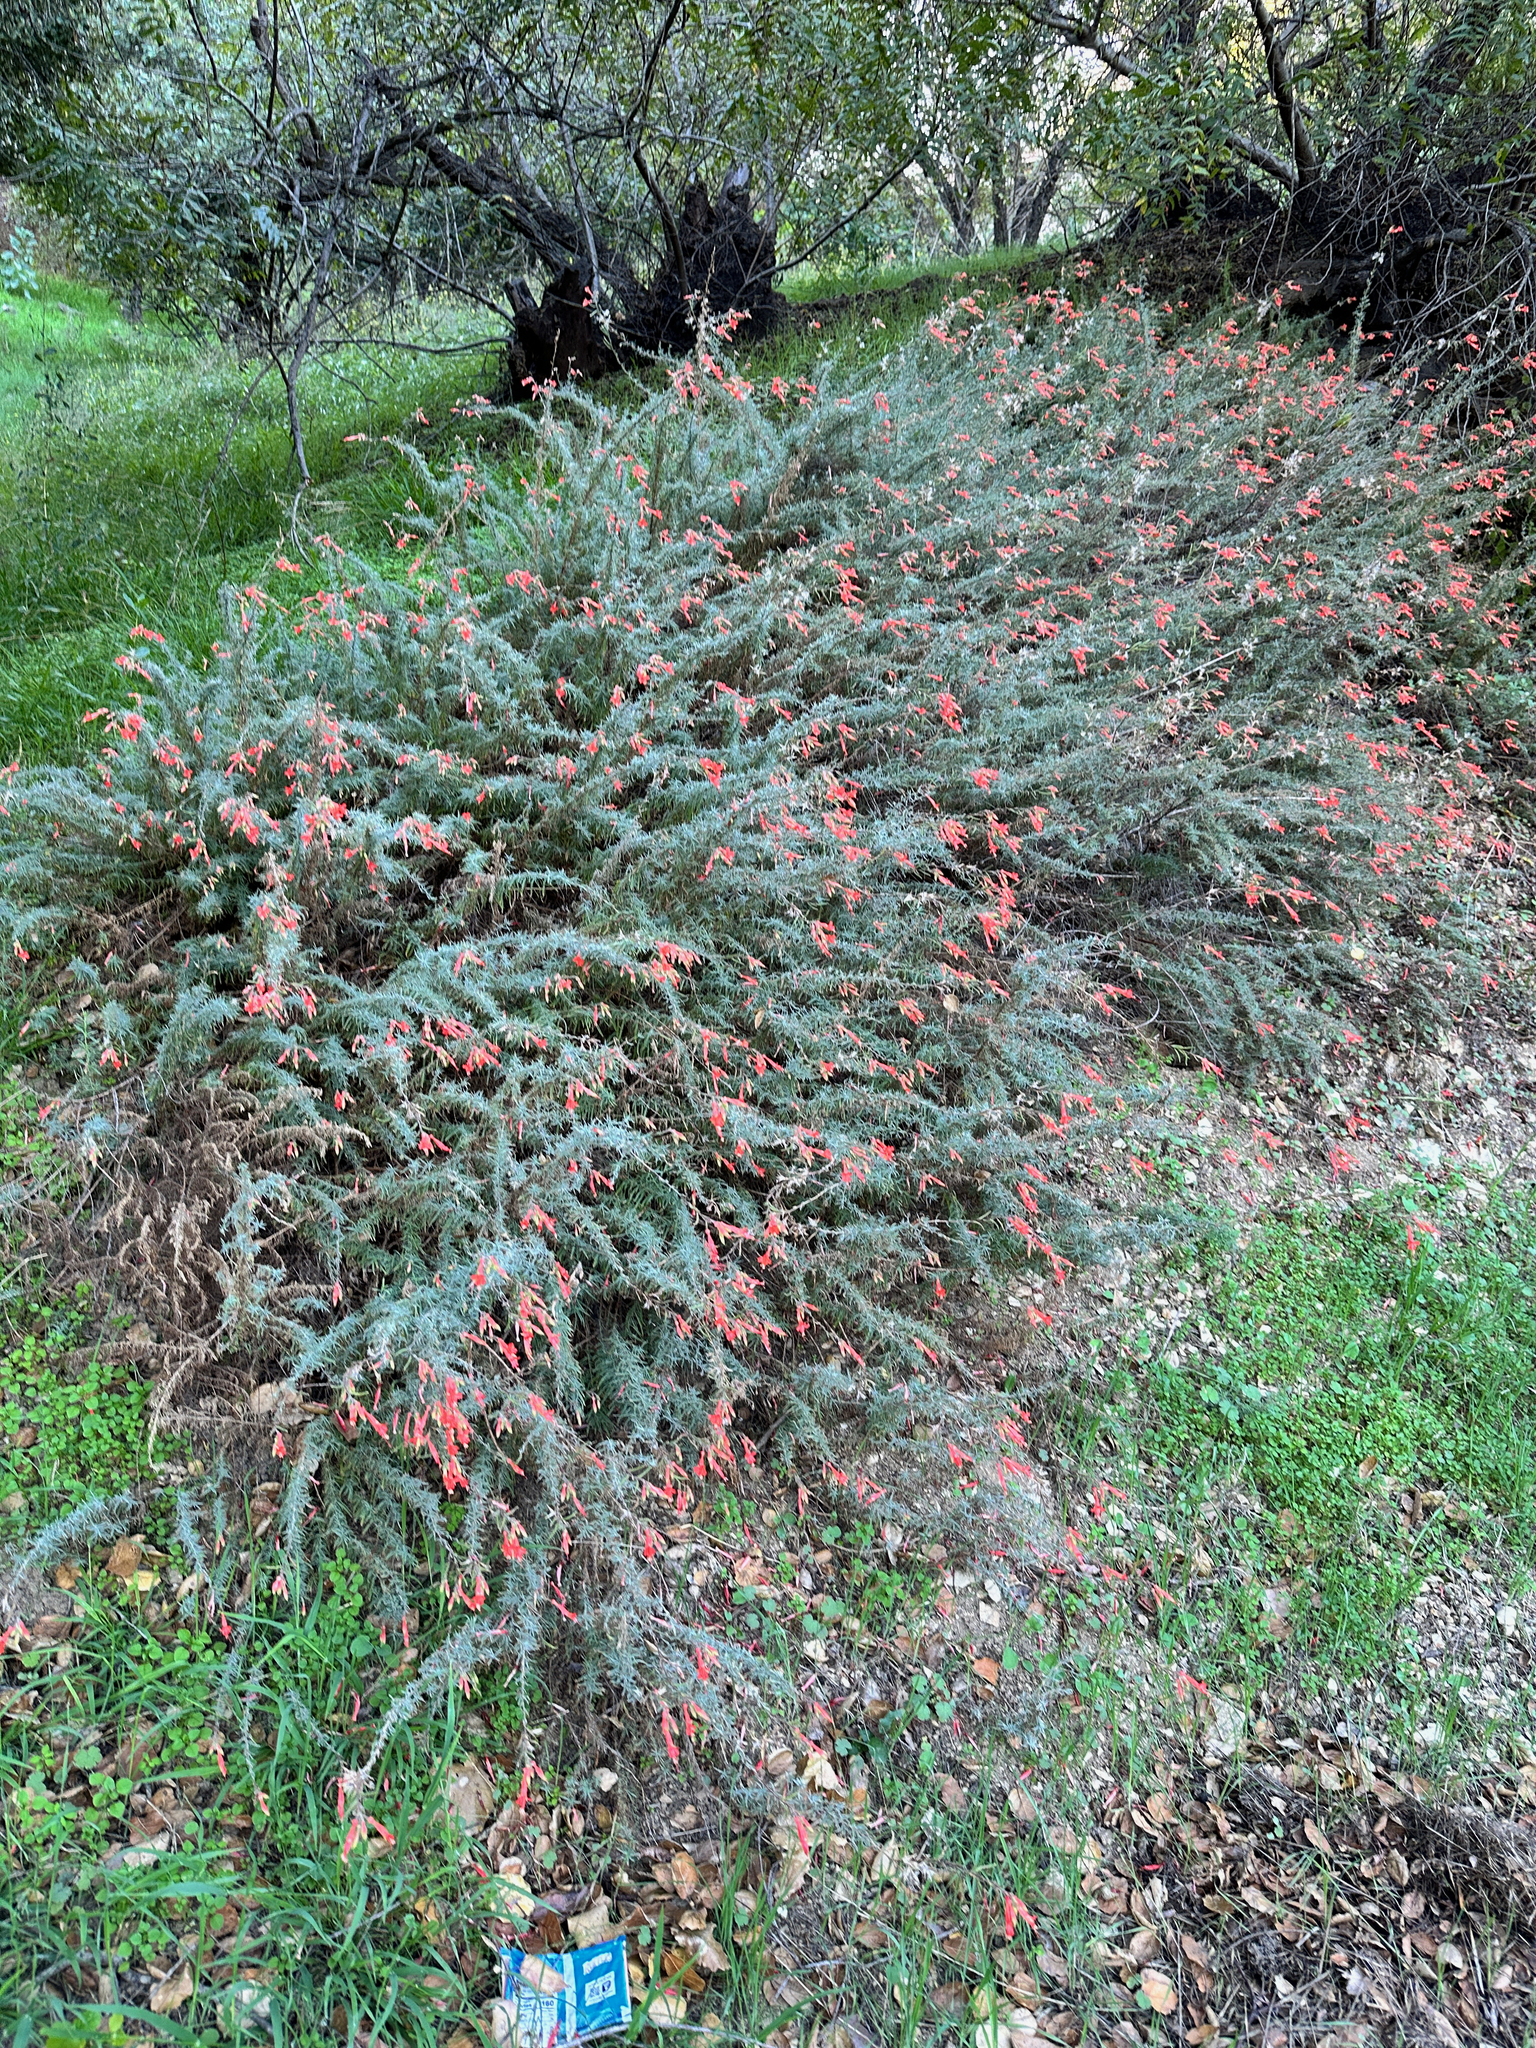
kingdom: Plantae
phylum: Tracheophyta
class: Magnoliopsida
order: Myrtales
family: Onagraceae
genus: Epilobium
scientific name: Epilobium canum
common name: California-fuchsia
